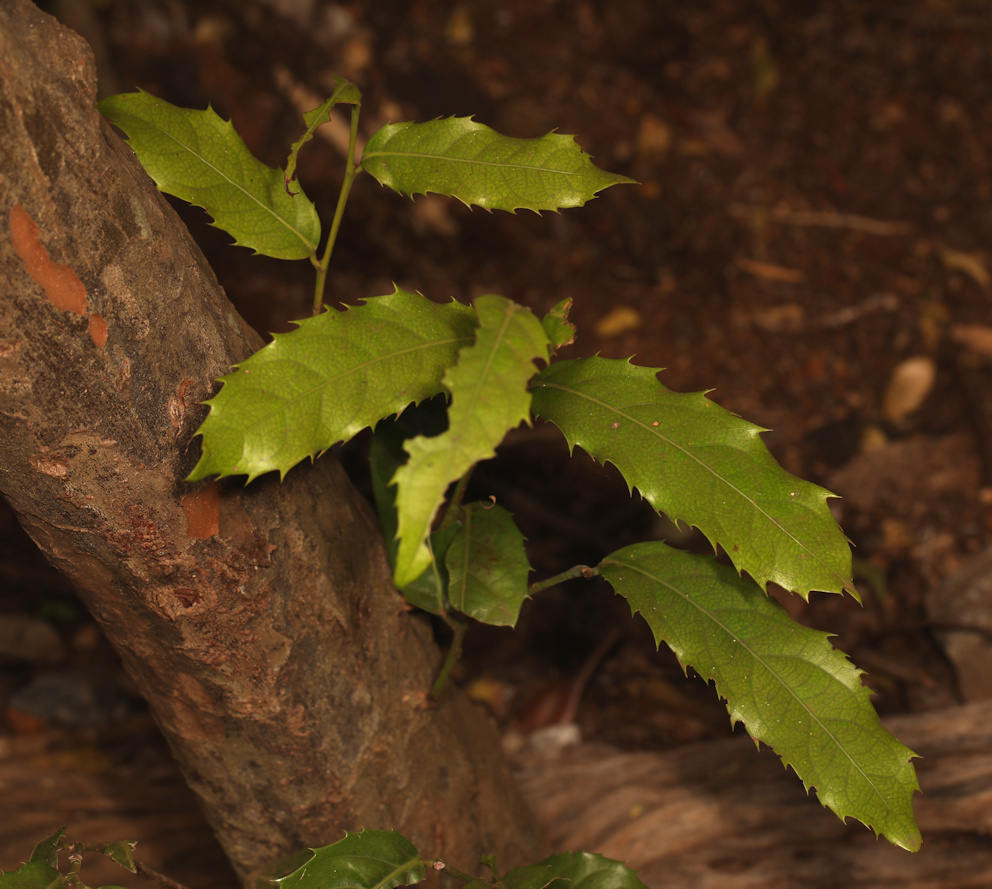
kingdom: Plantae
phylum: Tracheophyta
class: Magnoliopsida
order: Malpighiales
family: Achariaceae
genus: Rawsonia
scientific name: Rawsonia lucida
